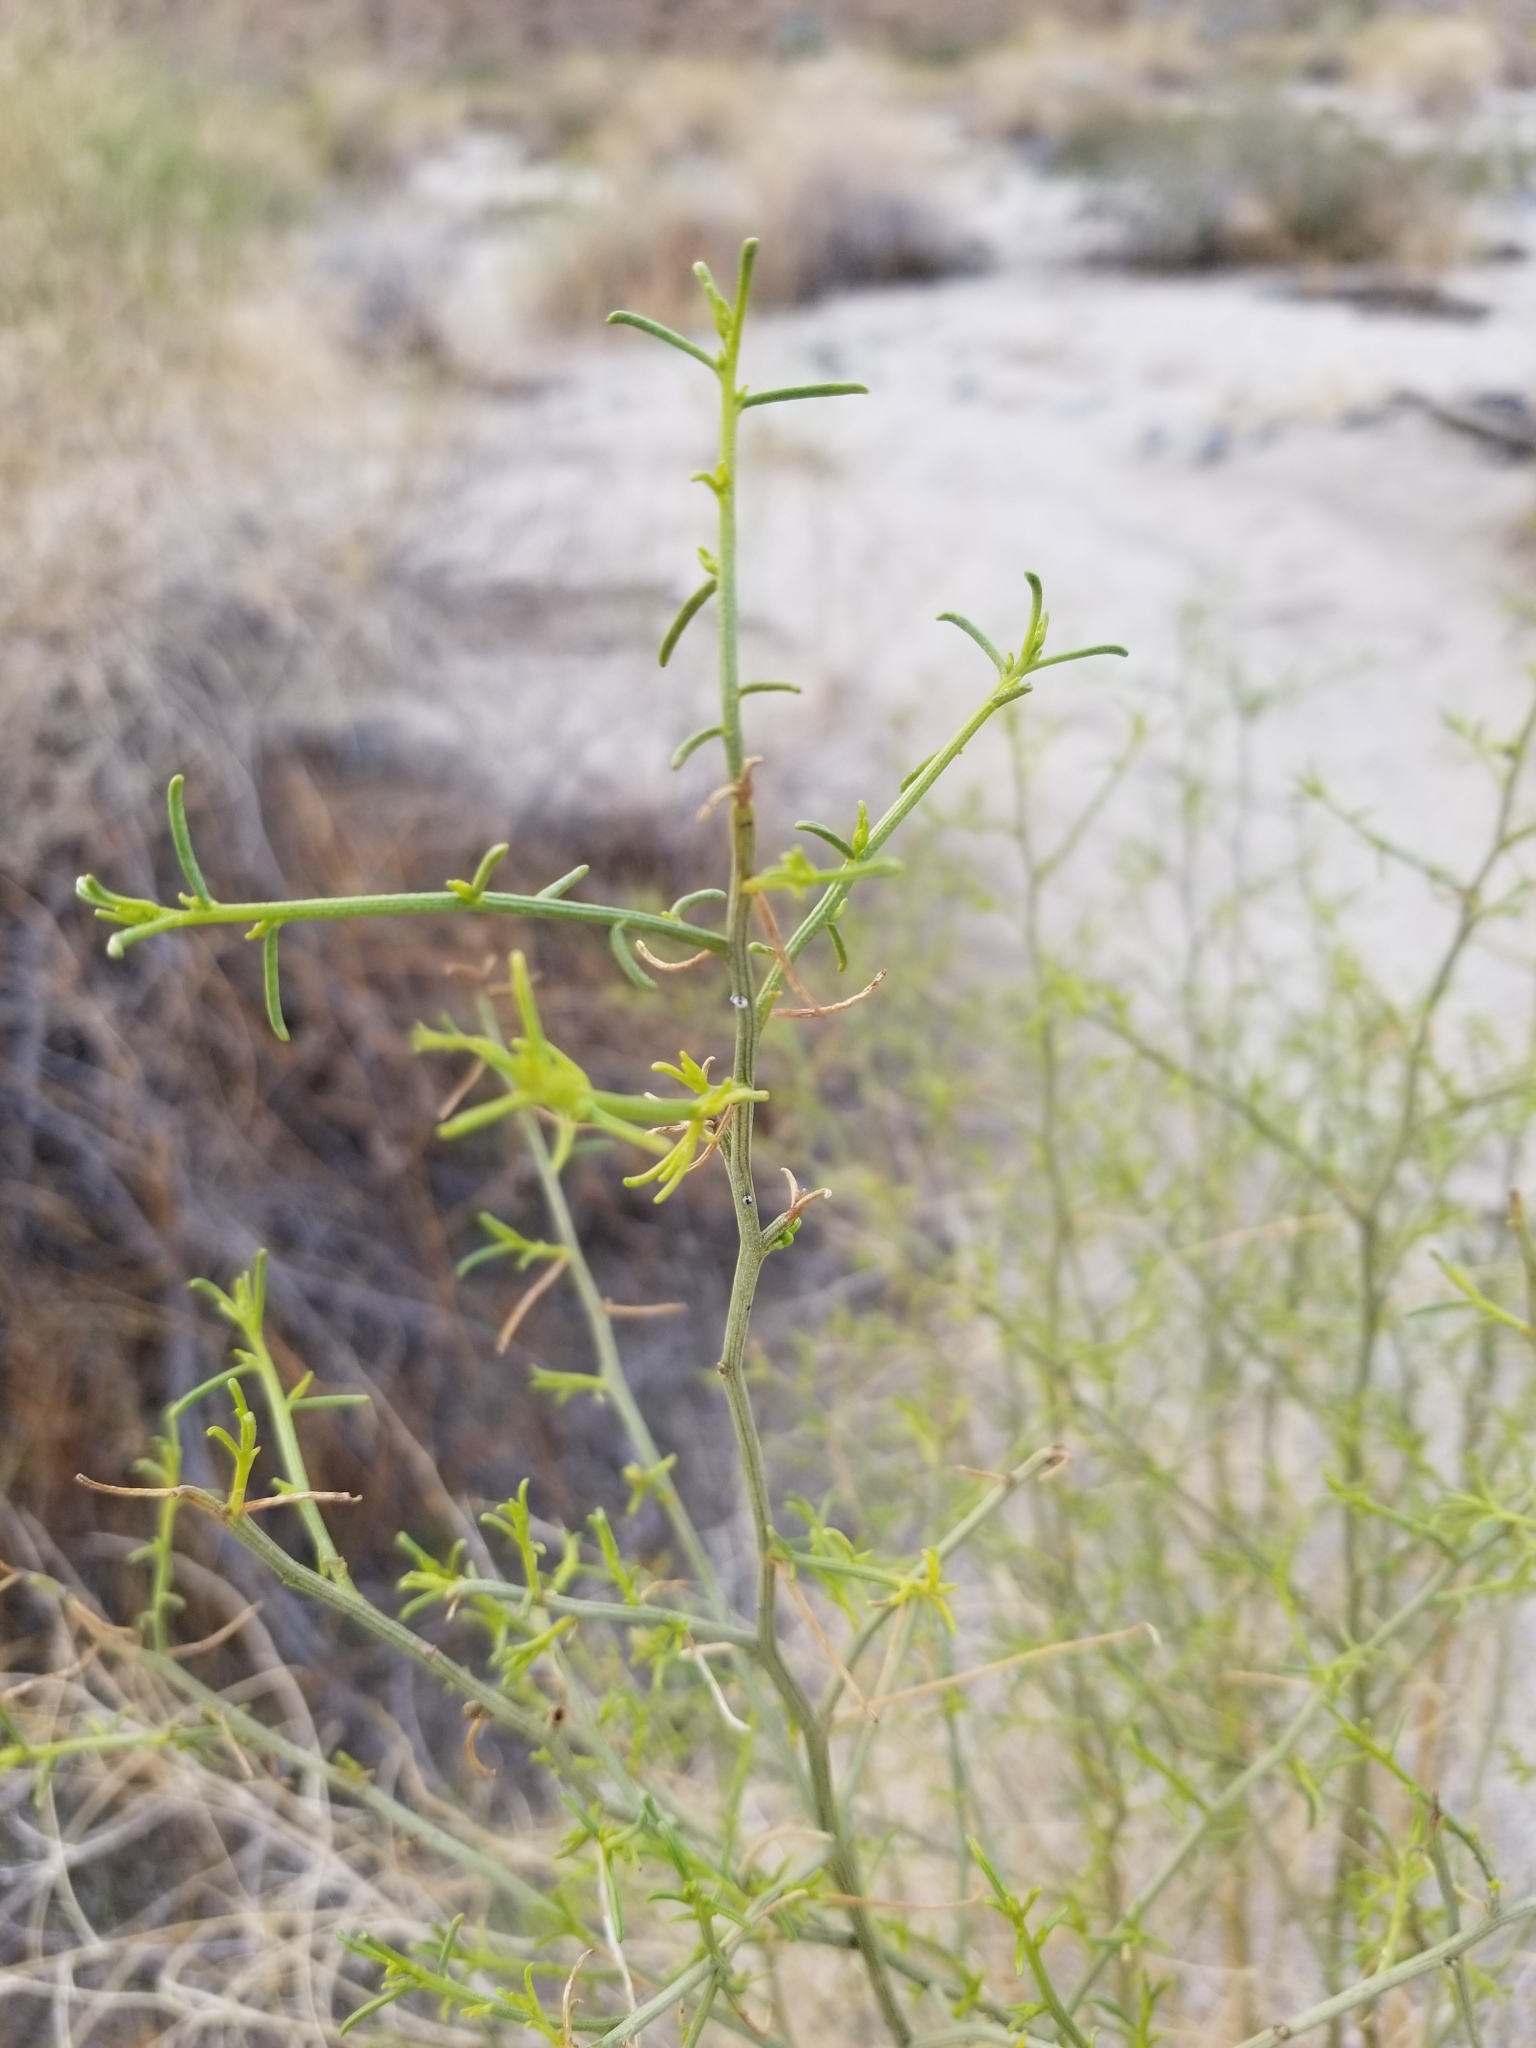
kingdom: Plantae
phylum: Tracheophyta
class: Magnoliopsida
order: Asterales
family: Asteraceae
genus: Ambrosia
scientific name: Ambrosia salsola
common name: Burrobrush
